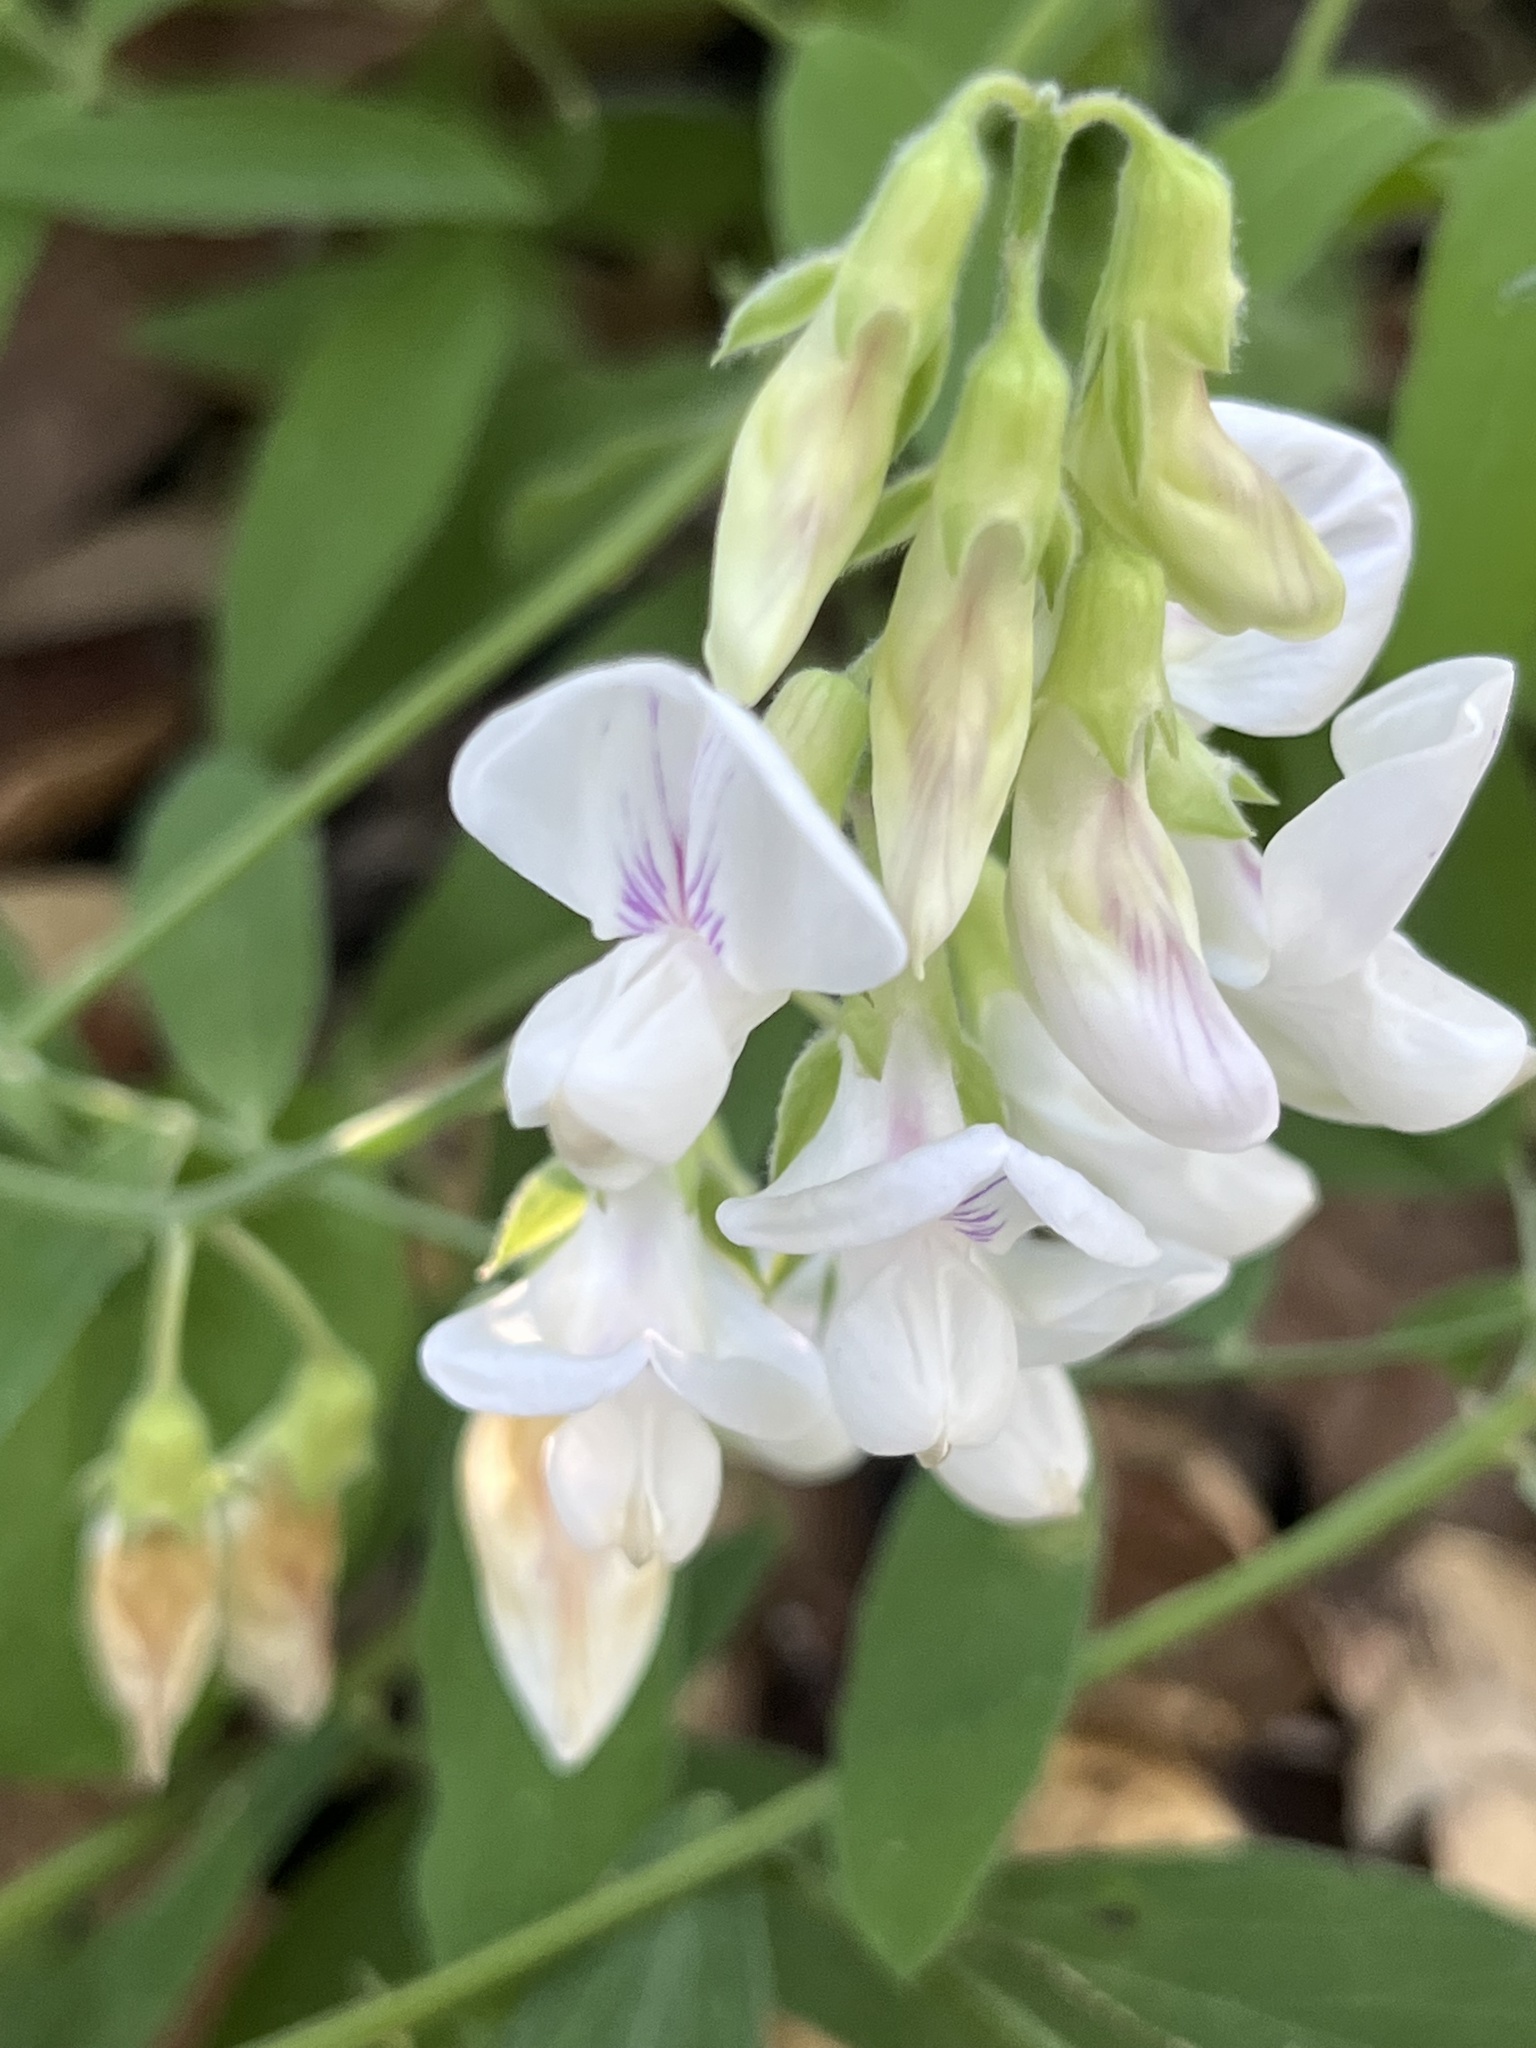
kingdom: Plantae
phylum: Tracheophyta
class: Magnoliopsida
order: Fabales
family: Fabaceae
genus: Lathyrus
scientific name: Lathyrus vestitus
